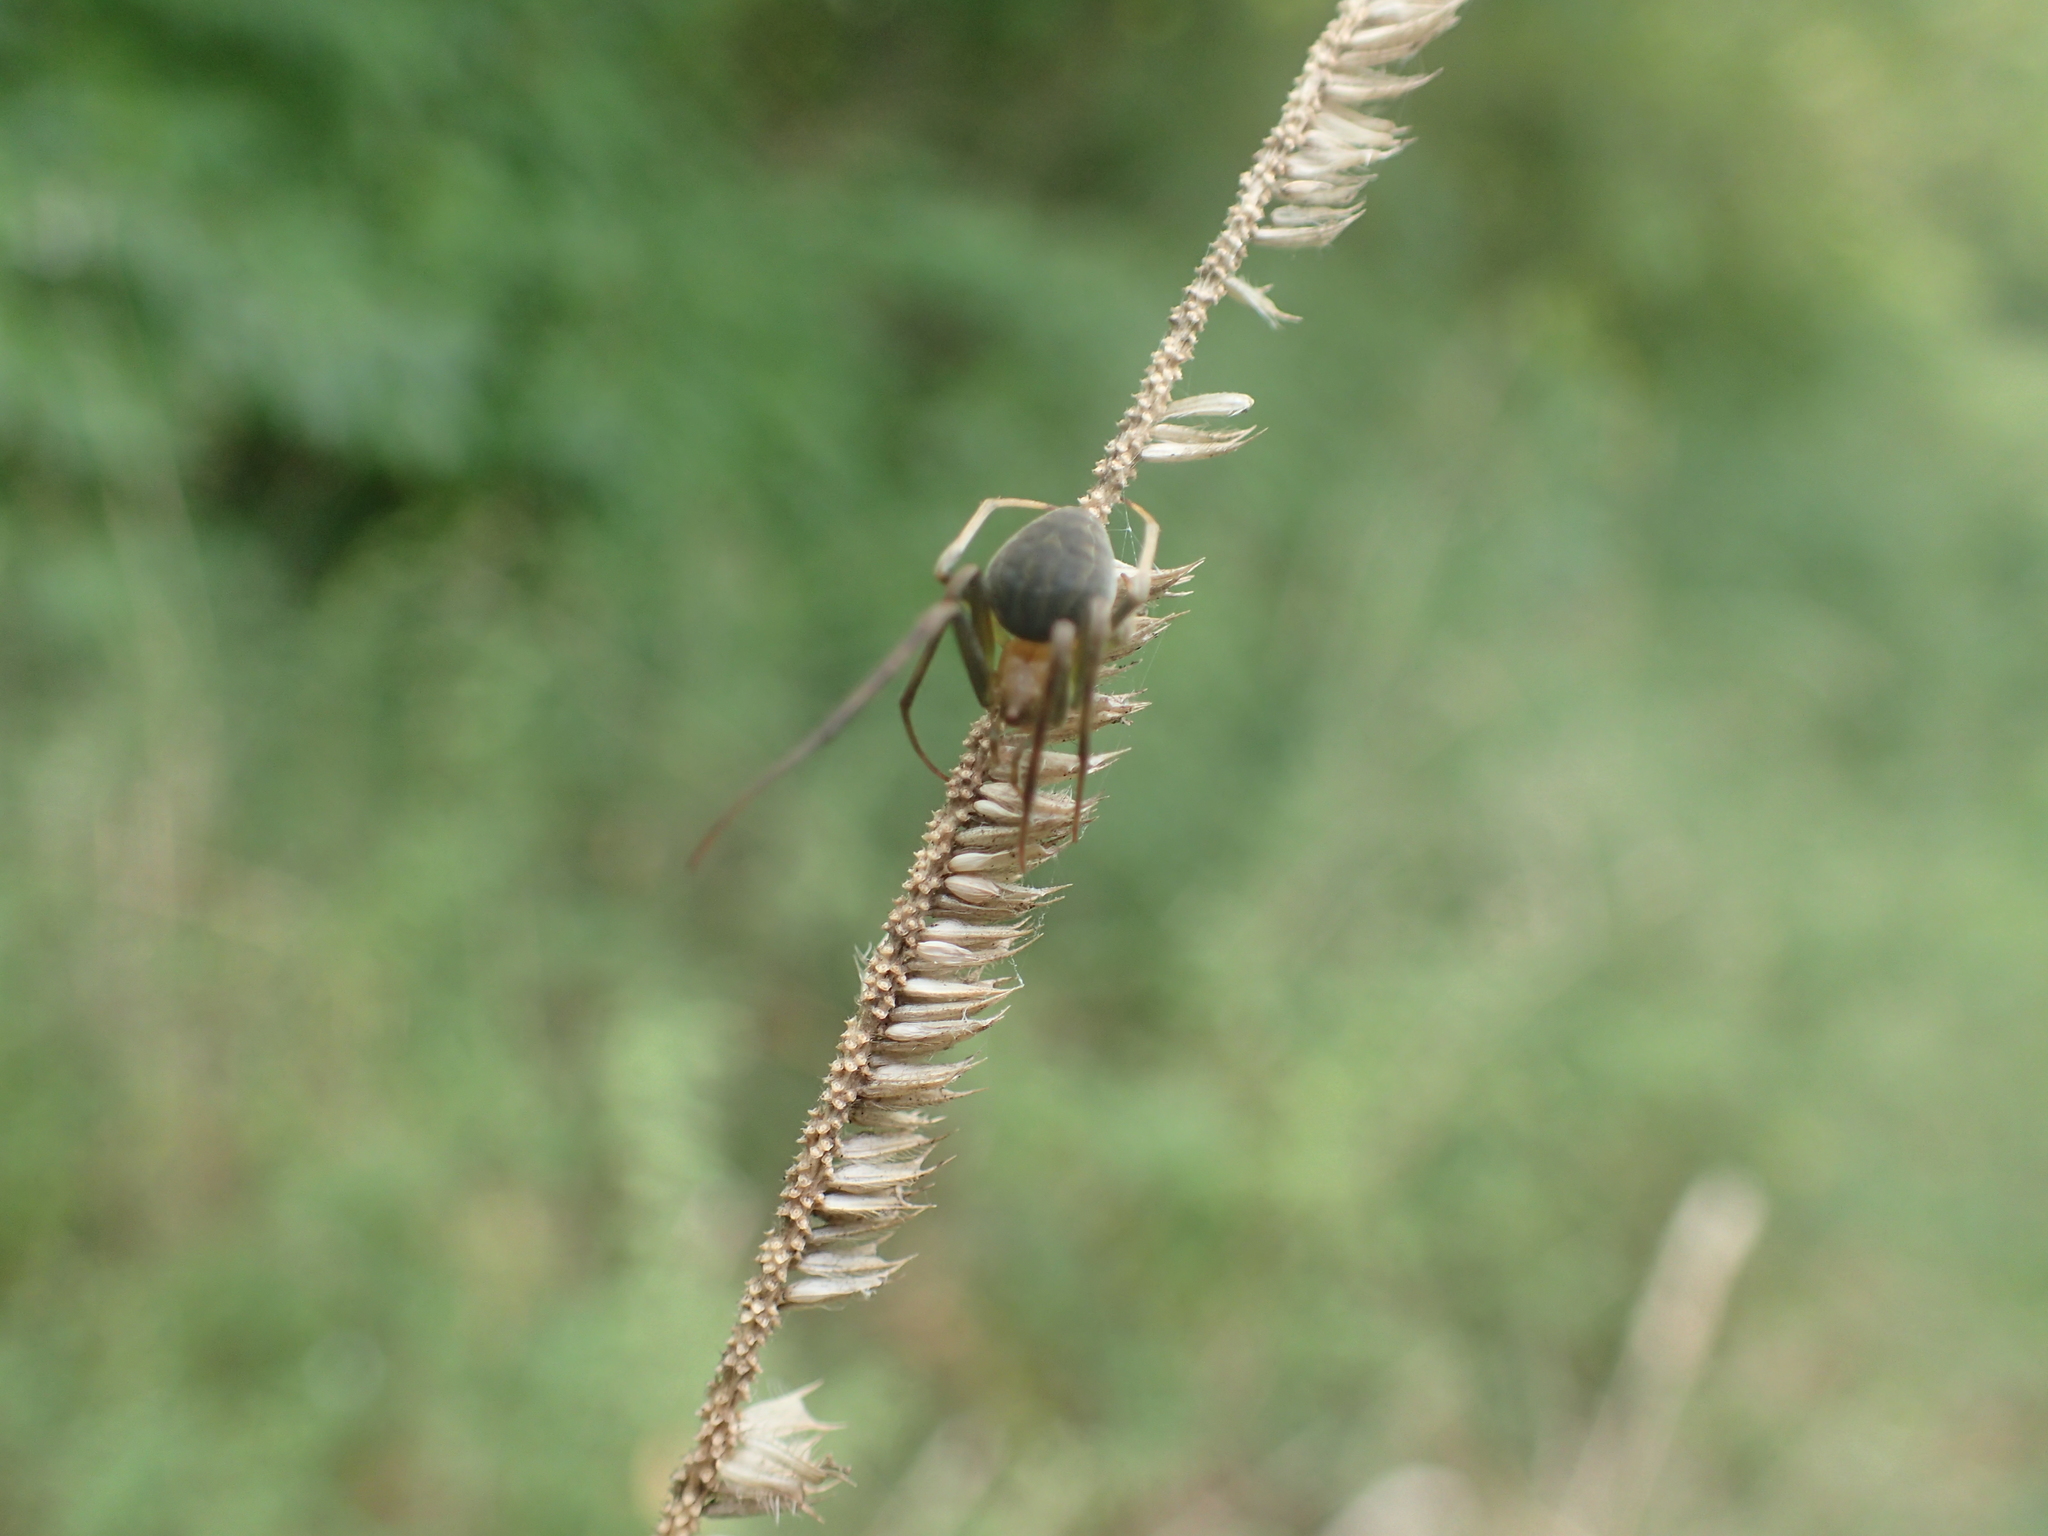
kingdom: Animalia
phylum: Arthropoda
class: Arachnida
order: Araneae
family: Araneidae
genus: Acacesia
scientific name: Acacesia hamata
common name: Orb weavers
